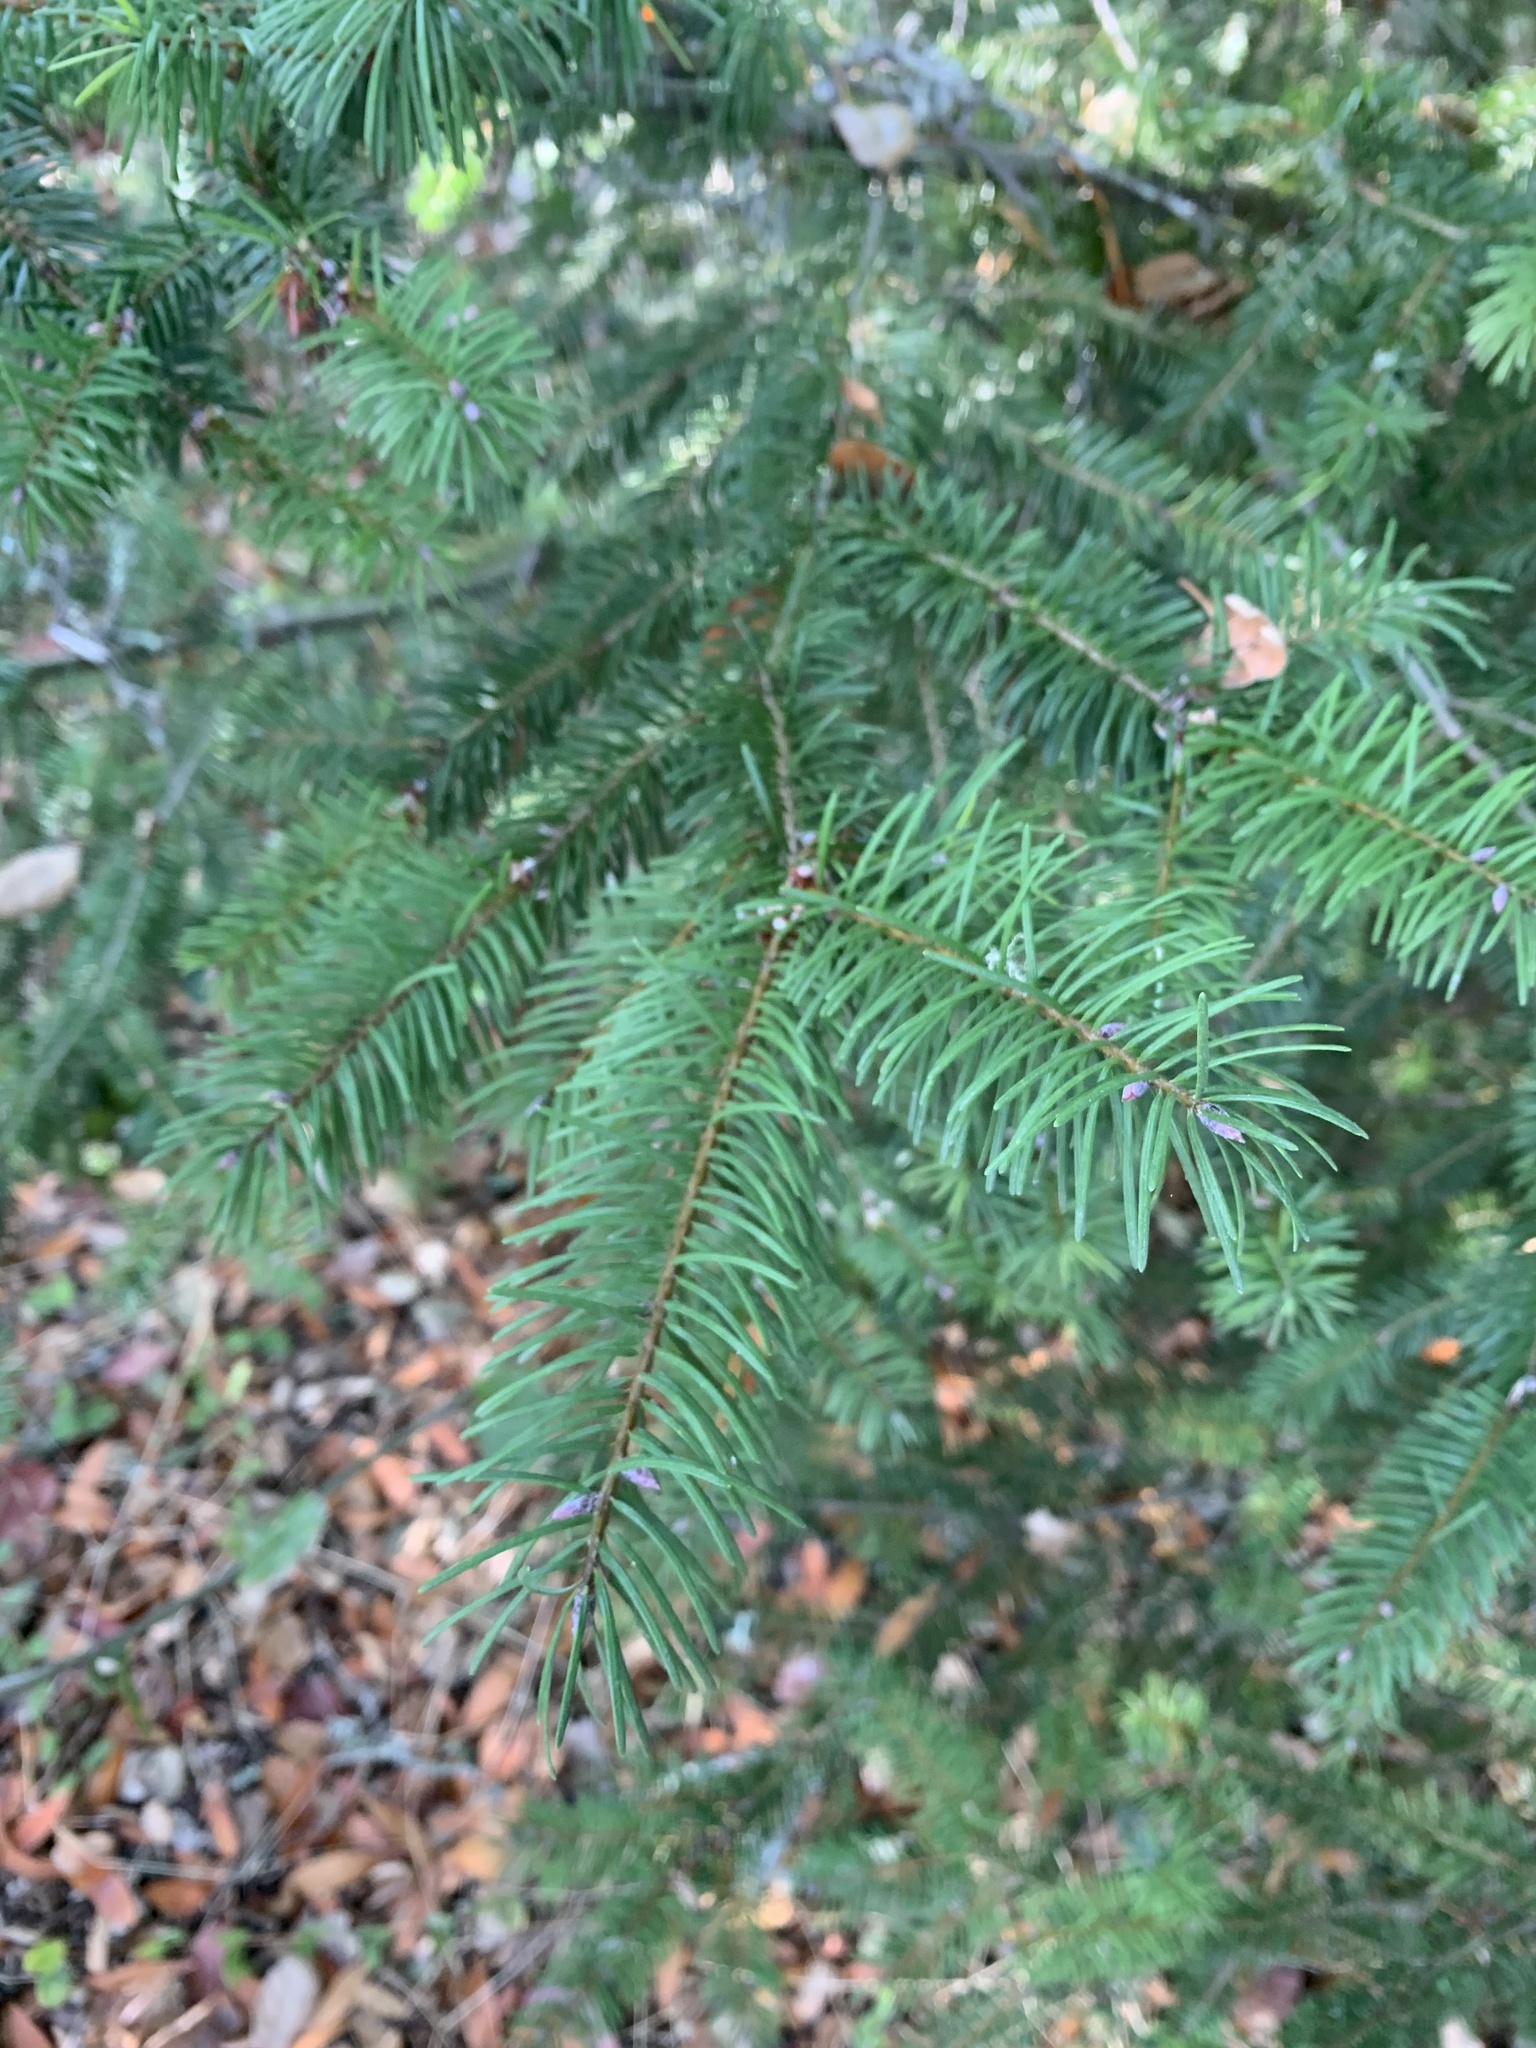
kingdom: Plantae
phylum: Tracheophyta
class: Pinopsida
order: Pinales
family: Pinaceae
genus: Pseudotsuga
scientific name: Pseudotsuga menziesii
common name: Douglas fir
